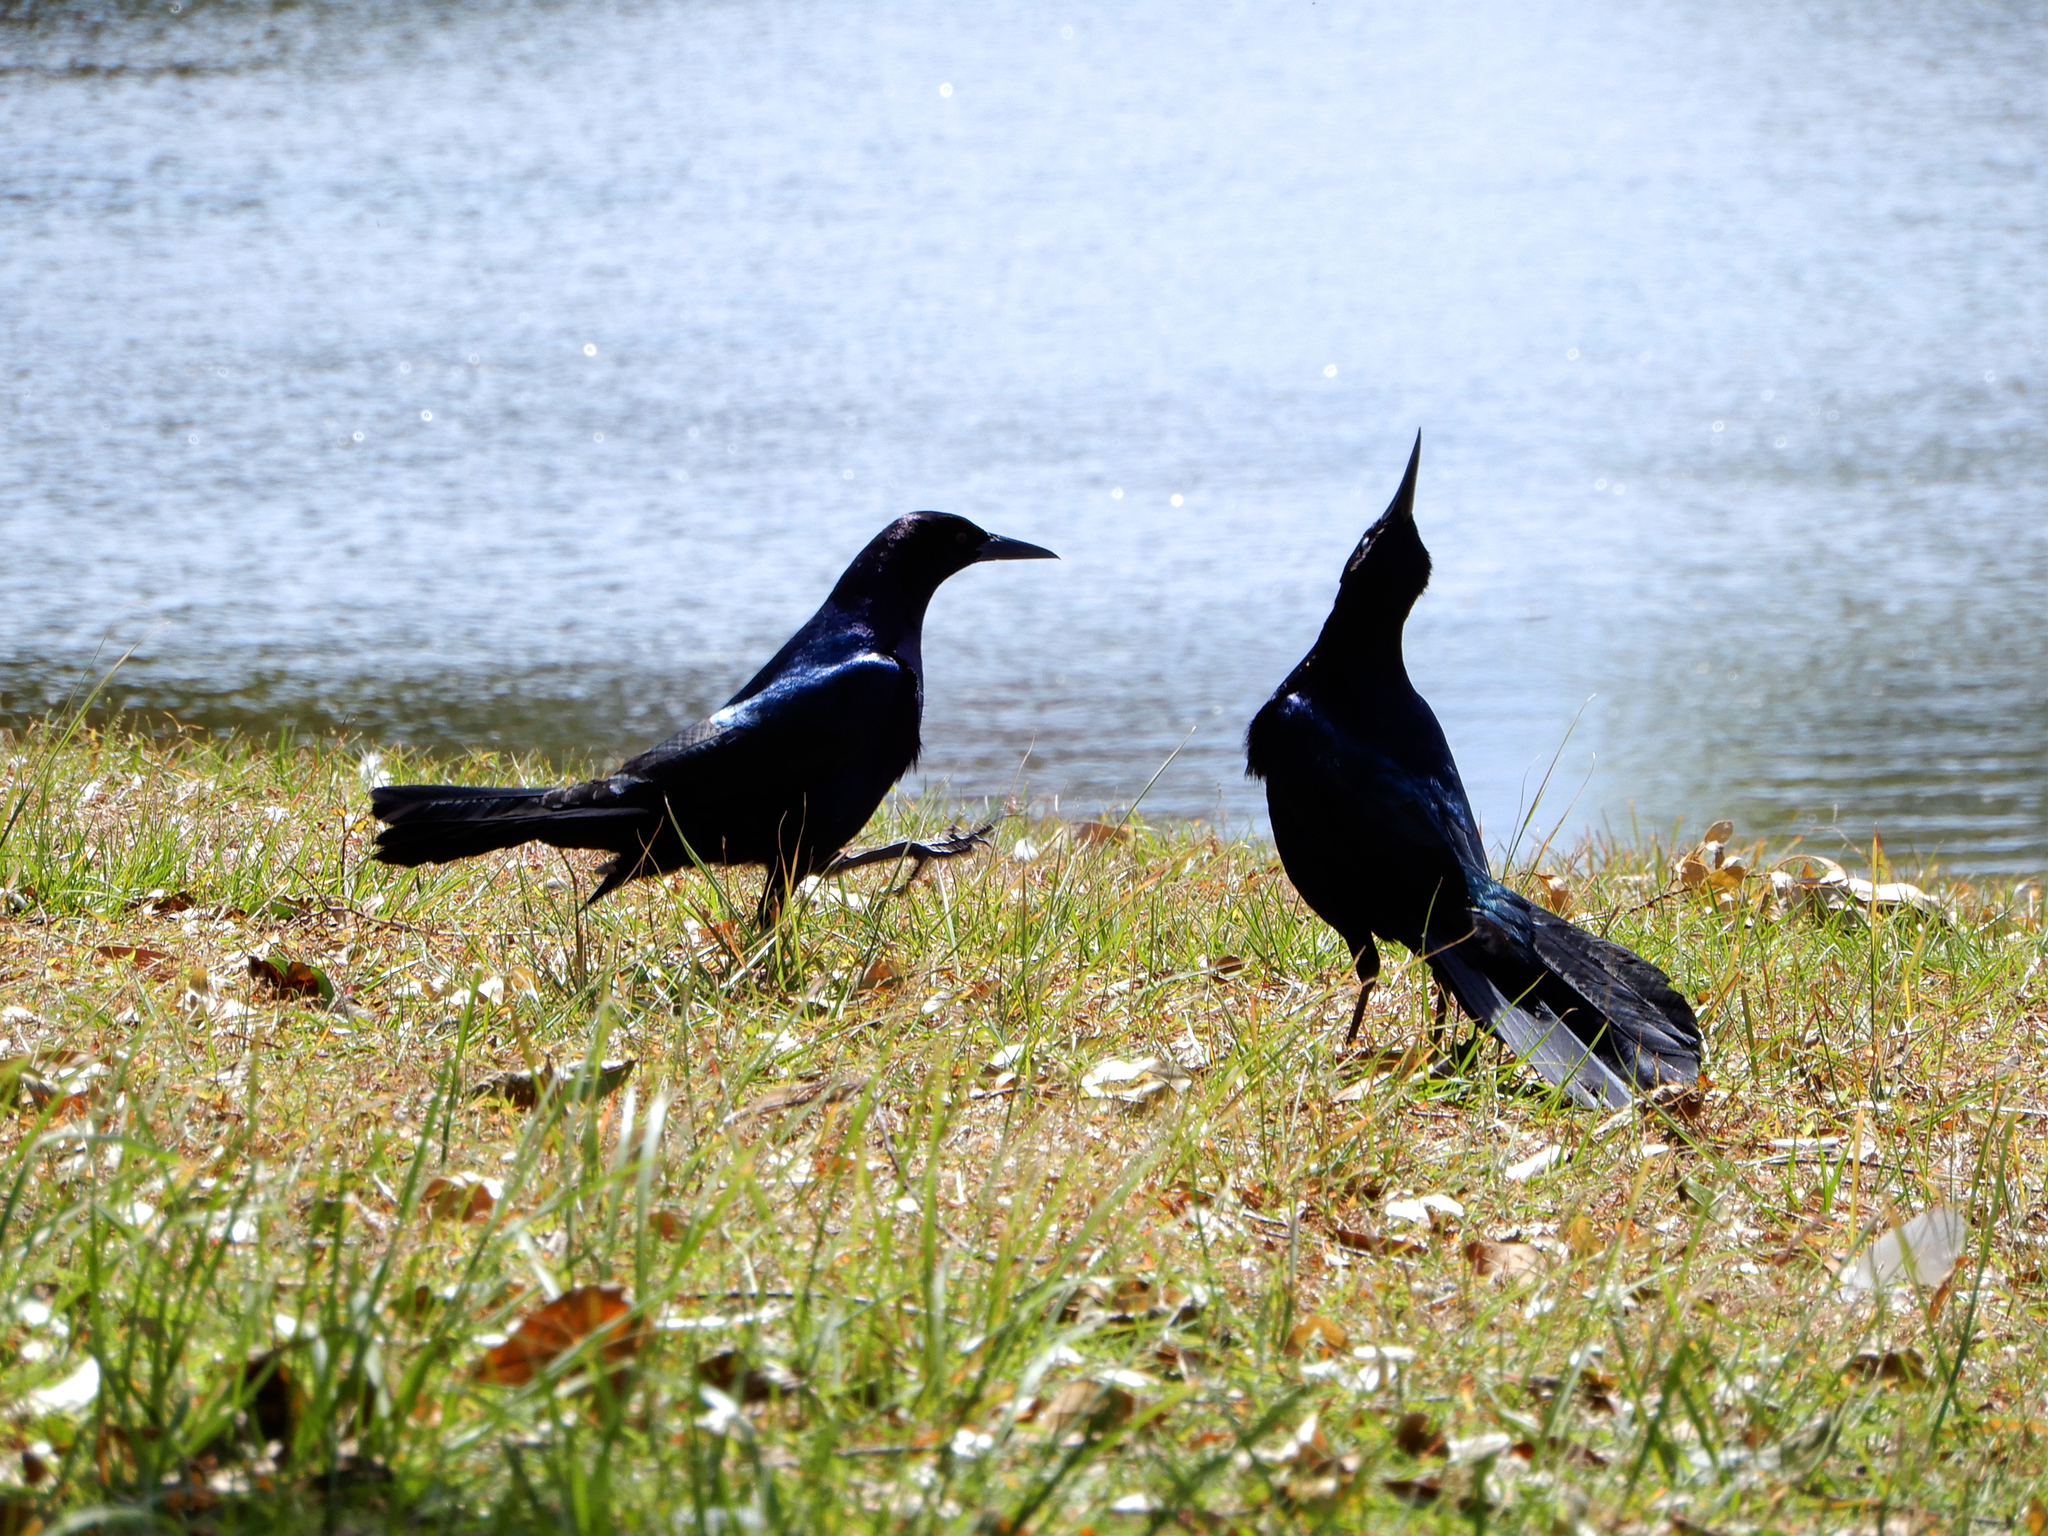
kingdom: Animalia
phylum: Chordata
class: Aves
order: Passeriformes
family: Icteridae
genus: Quiscalus
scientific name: Quiscalus major
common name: Boat-tailed grackle
